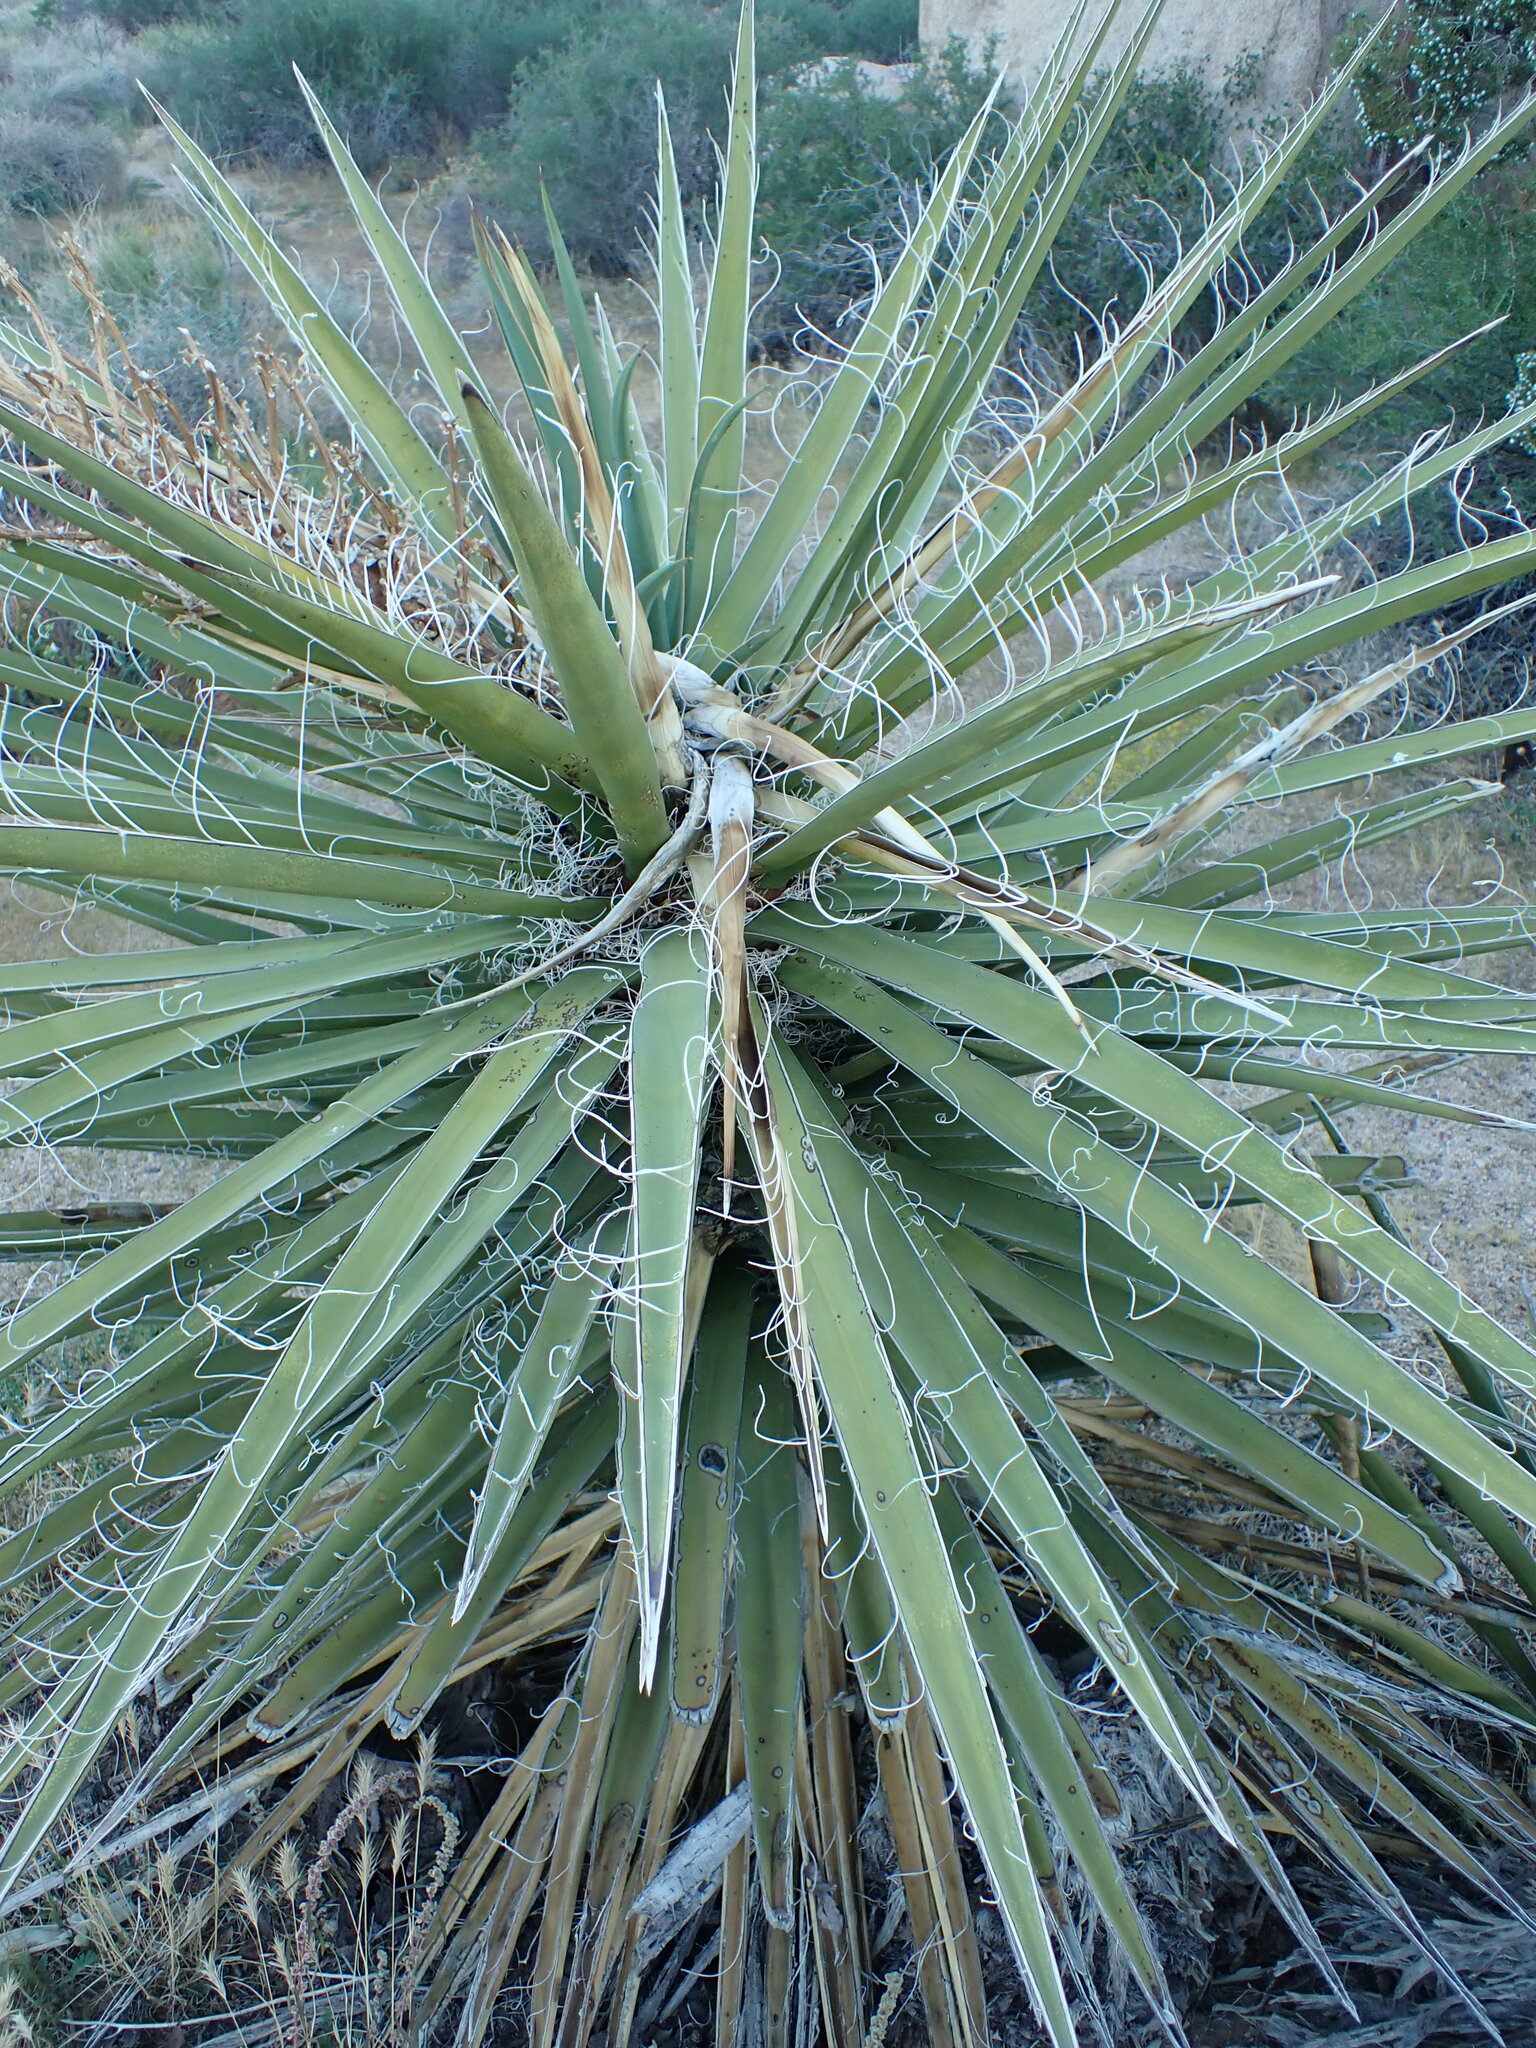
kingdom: Plantae
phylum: Tracheophyta
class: Liliopsida
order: Asparagales
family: Asparagaceae
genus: Yucca
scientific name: Yucca schidigera
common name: Mojave yucca
